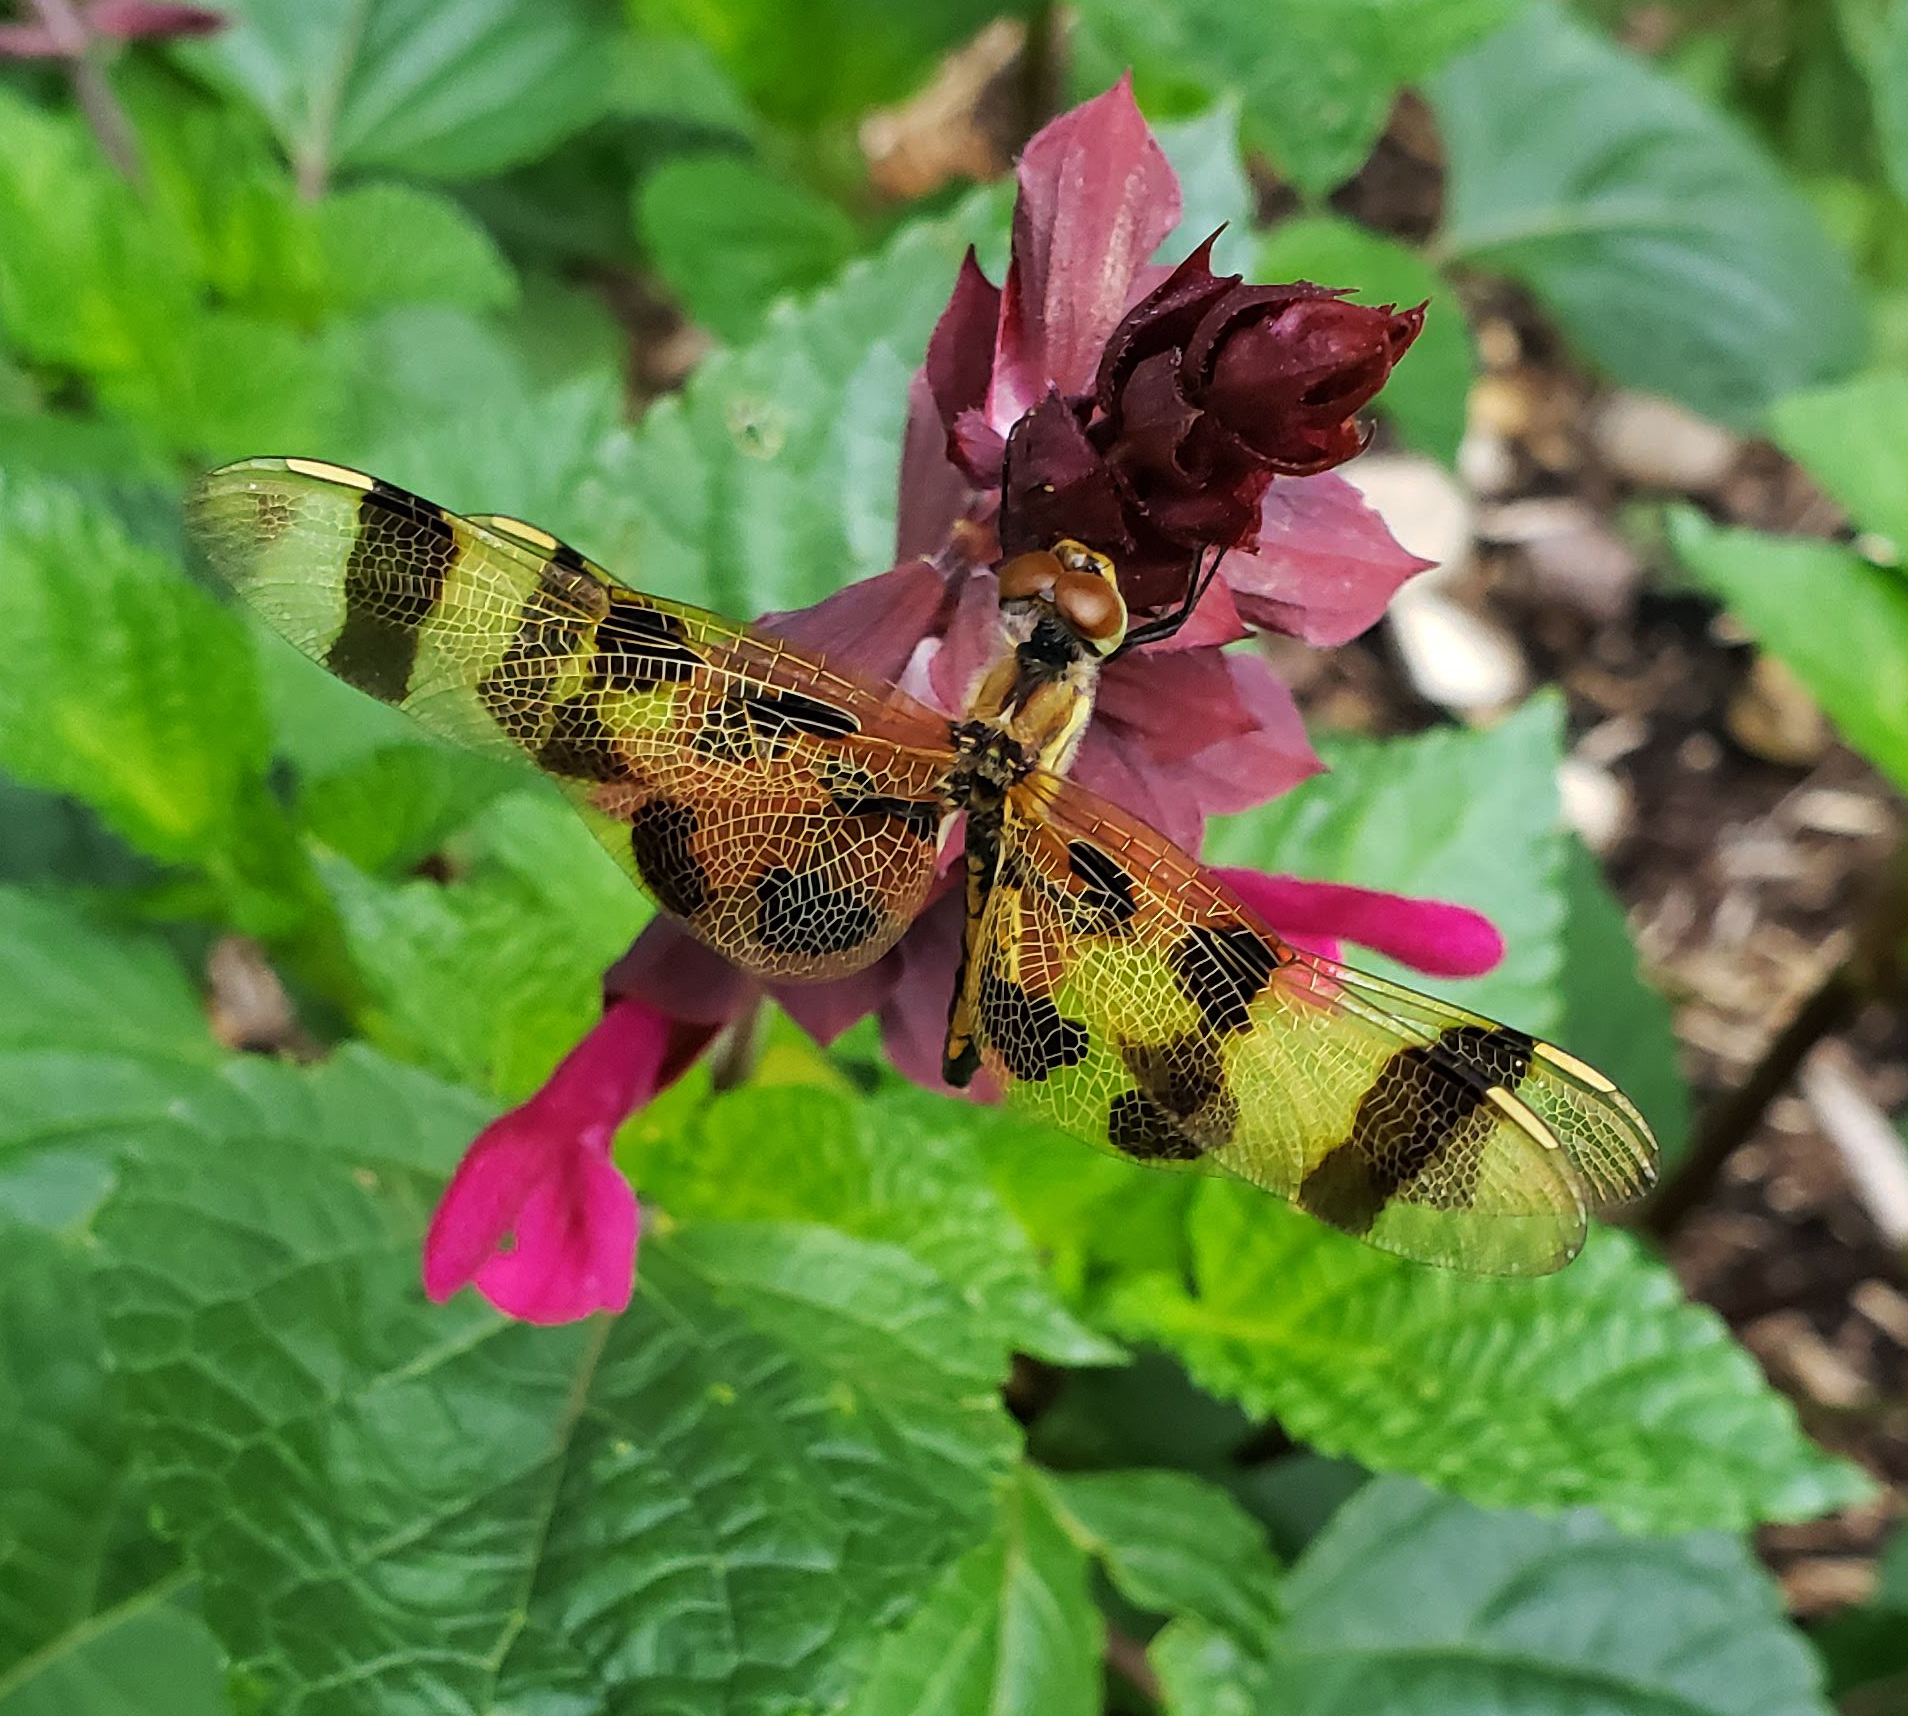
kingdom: Animalia
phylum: Arthropoda
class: Insecta
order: Odonata
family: Libellulidae
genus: Celithemis
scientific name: Celithemis eponina
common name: Halloween pennant
